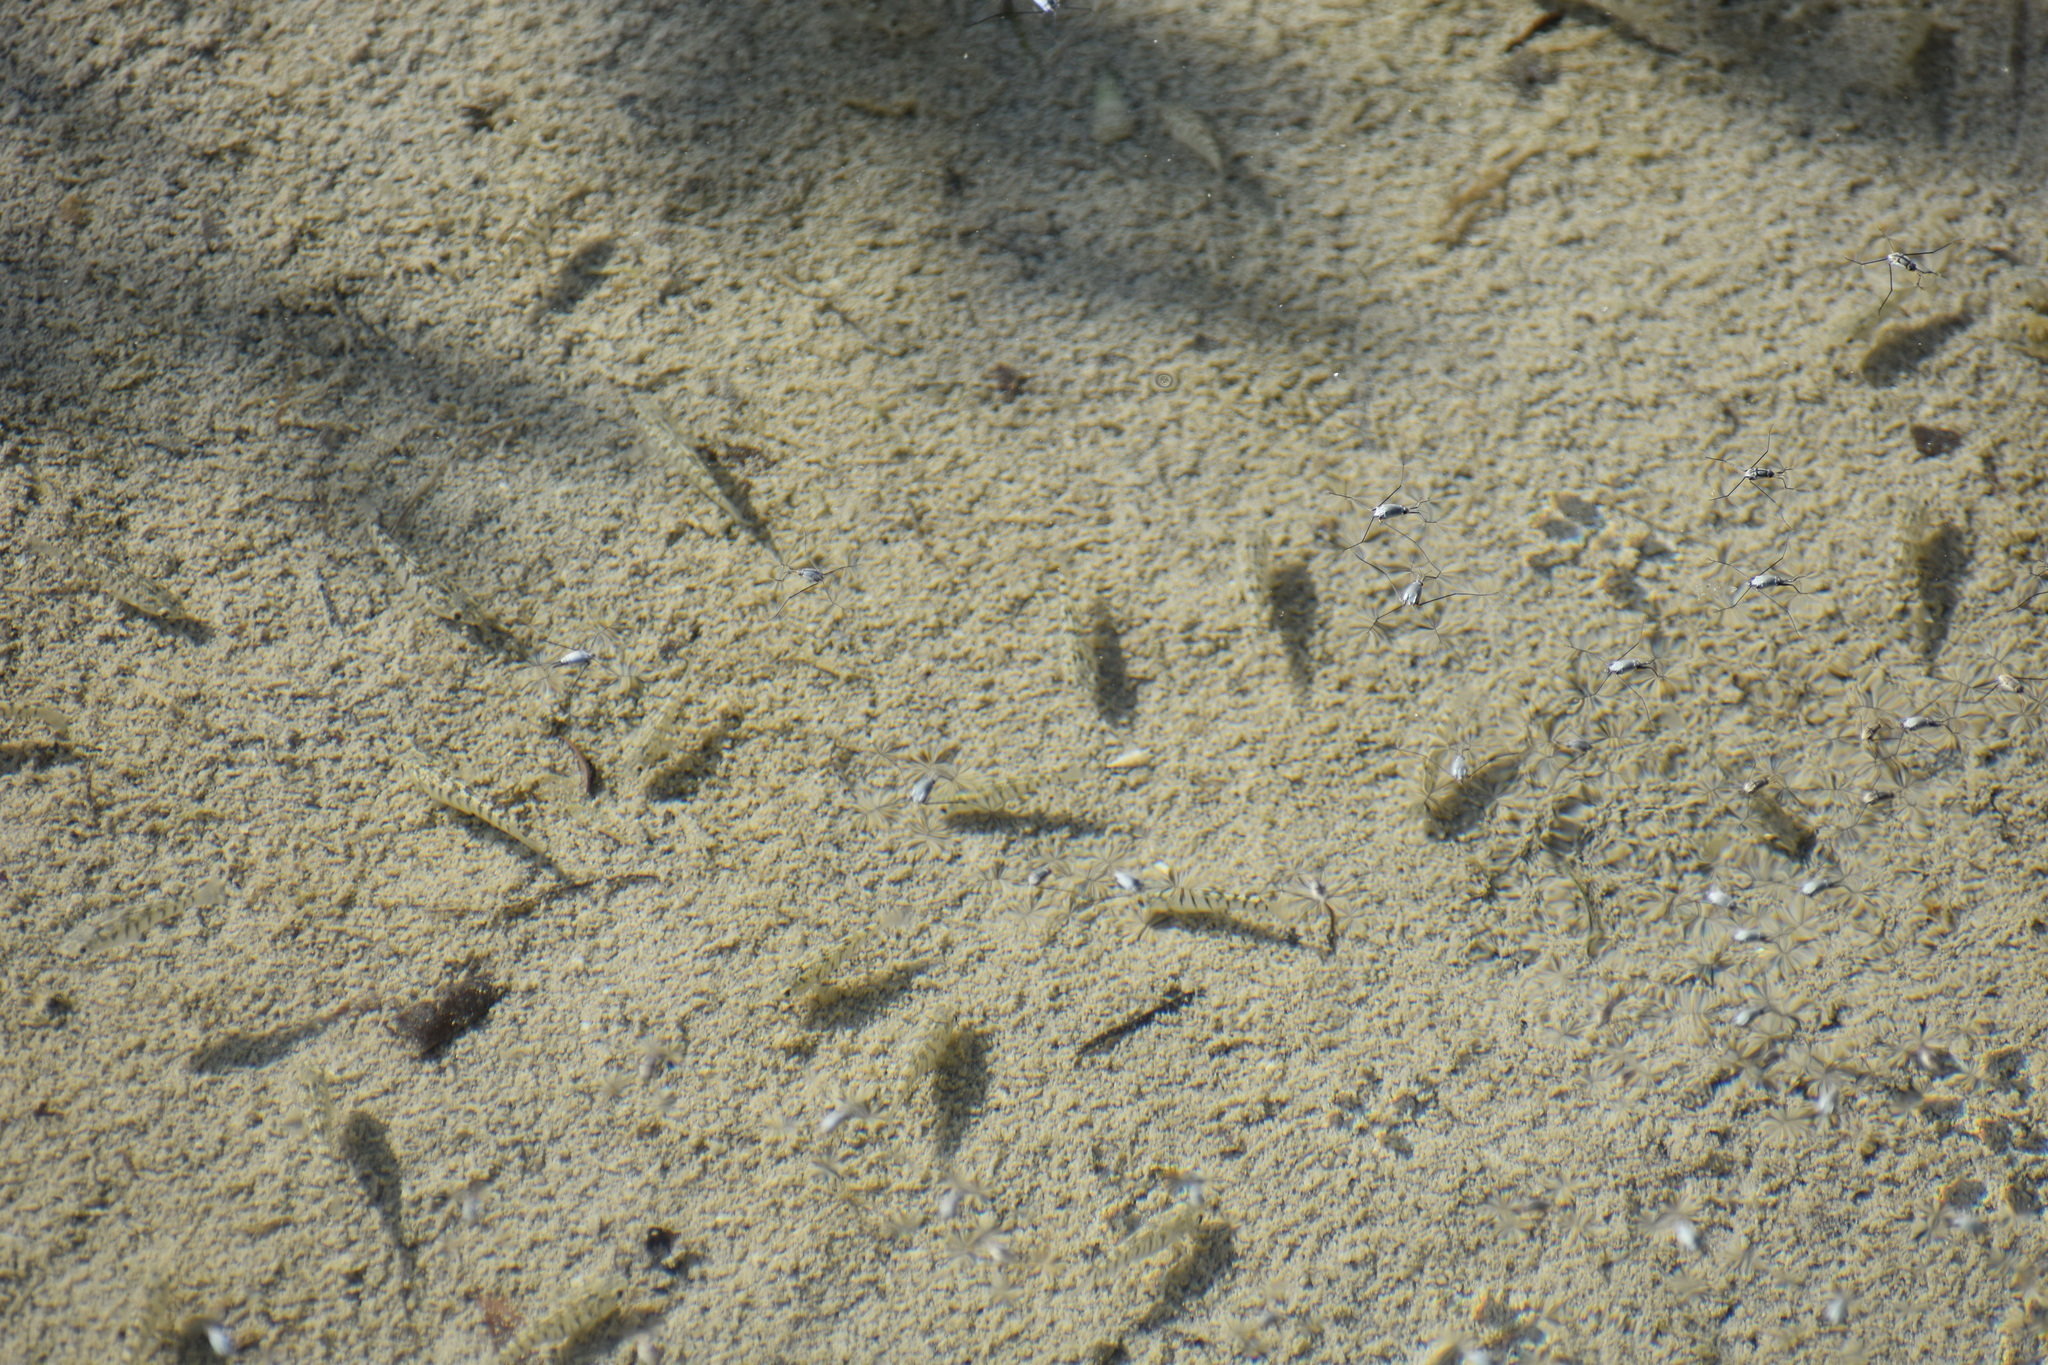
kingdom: Animalia
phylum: Chordata
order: Cyprinodontiformes
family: Cyprinodontidae
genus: Aphanius
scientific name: Aphanius dispar
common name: Arabian toothcarp
